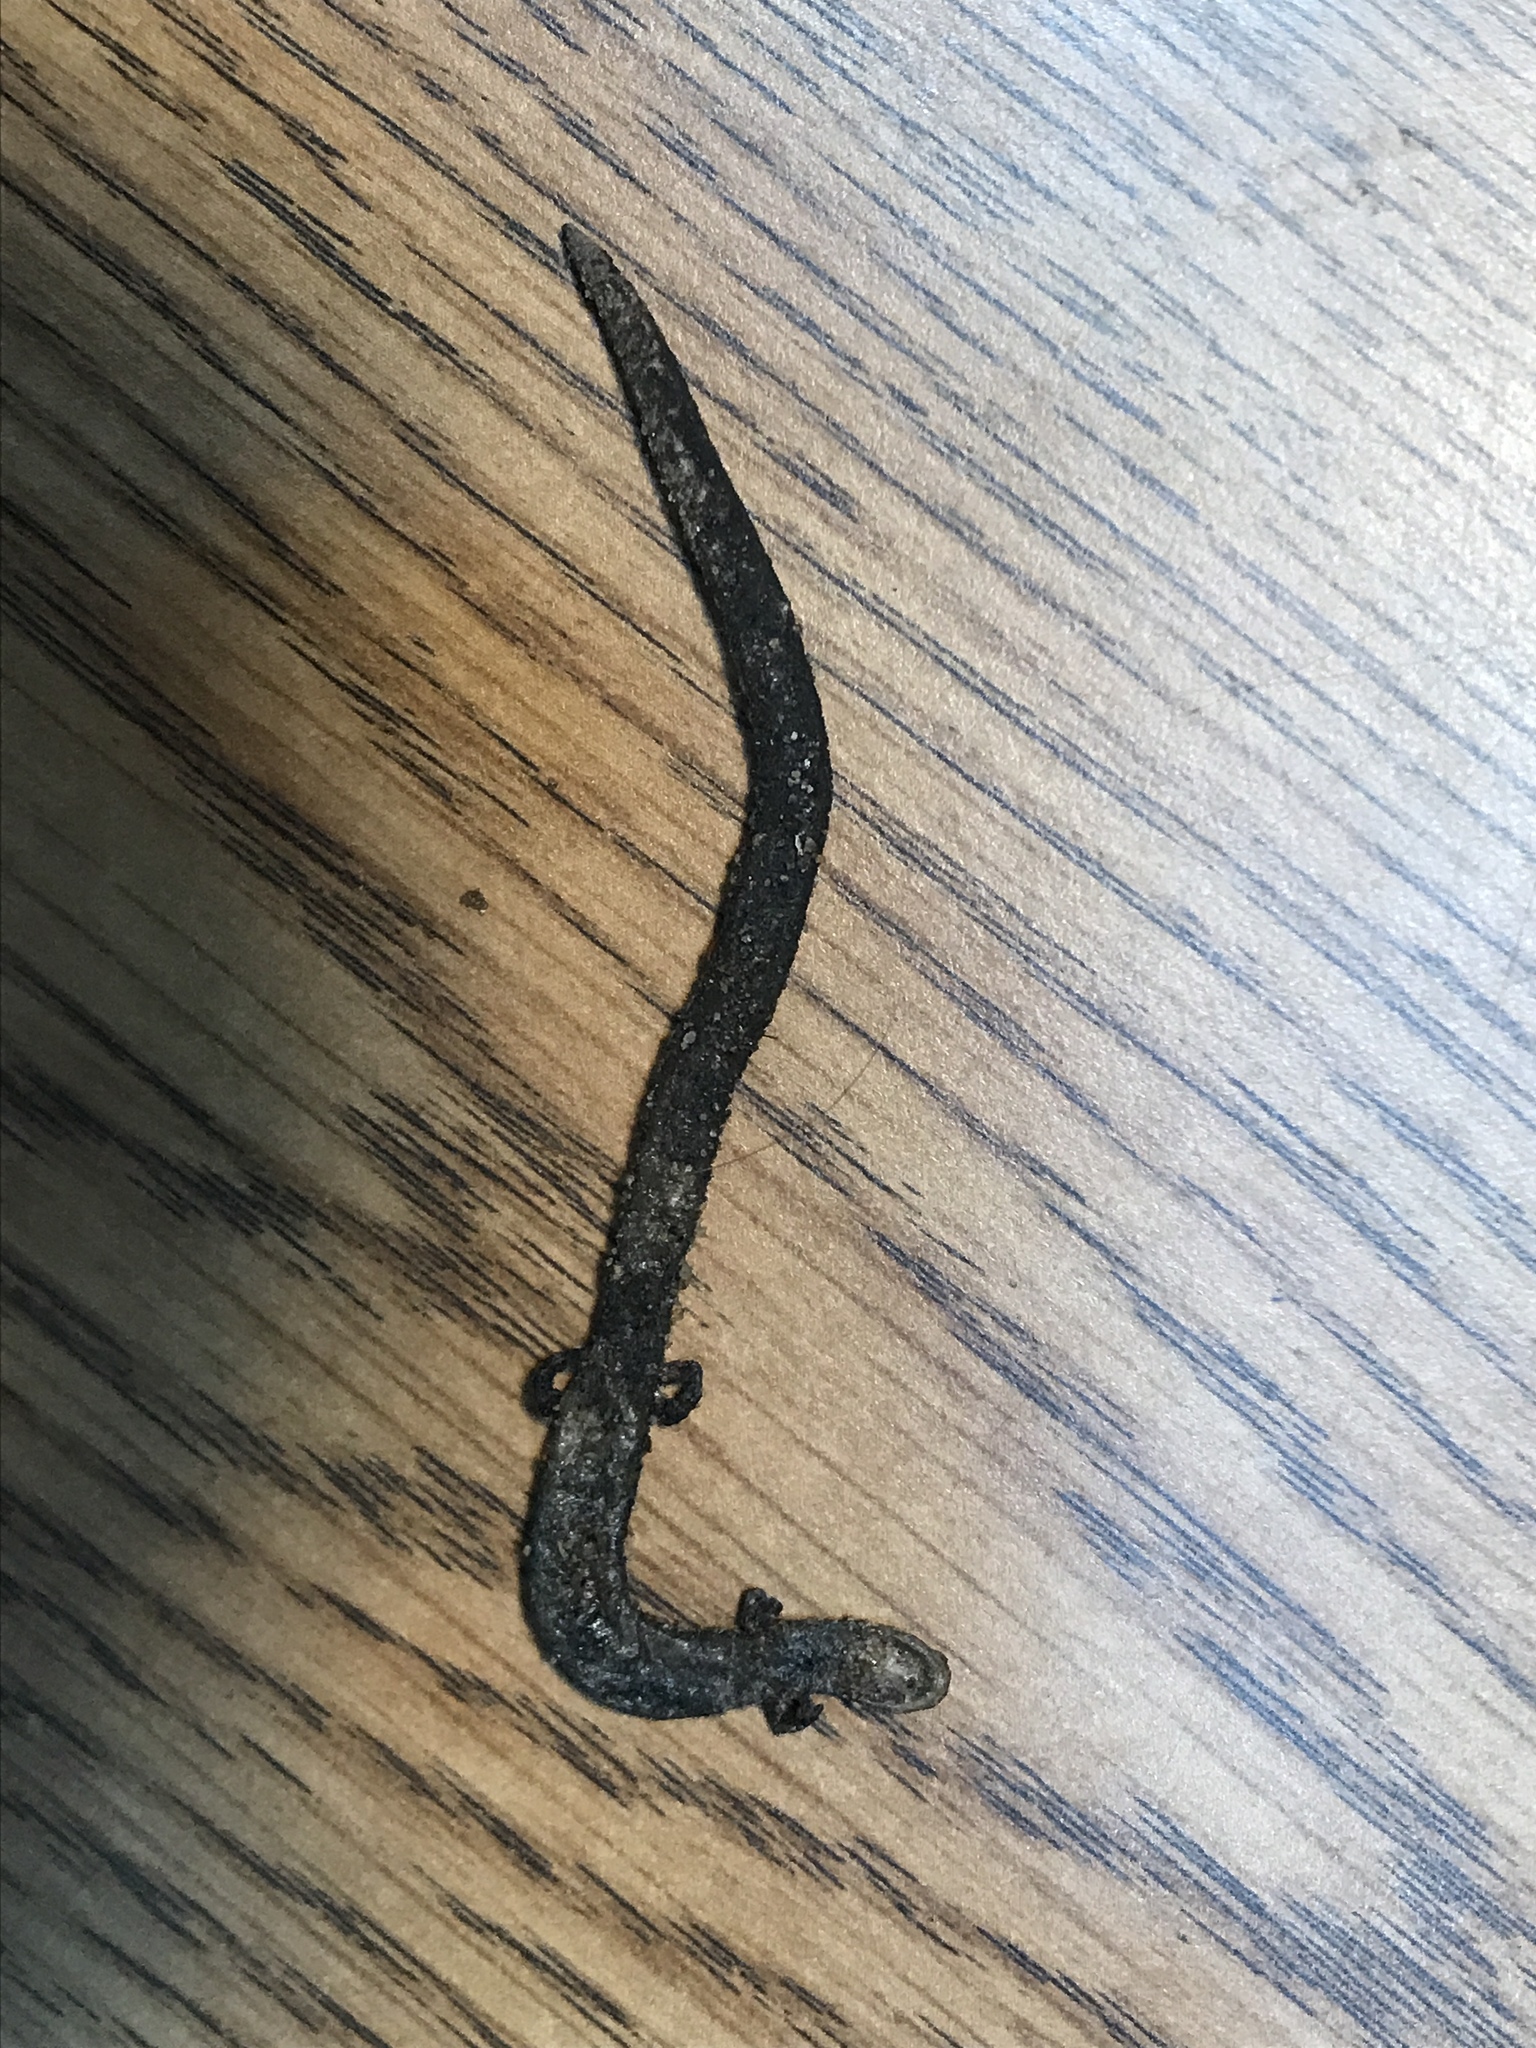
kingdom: Animalia
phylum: Chordata
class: Amphibia
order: Caudata
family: Plethodontidae
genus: Batrachoseps
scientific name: Batrachoseps major
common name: Garden slender salamander
